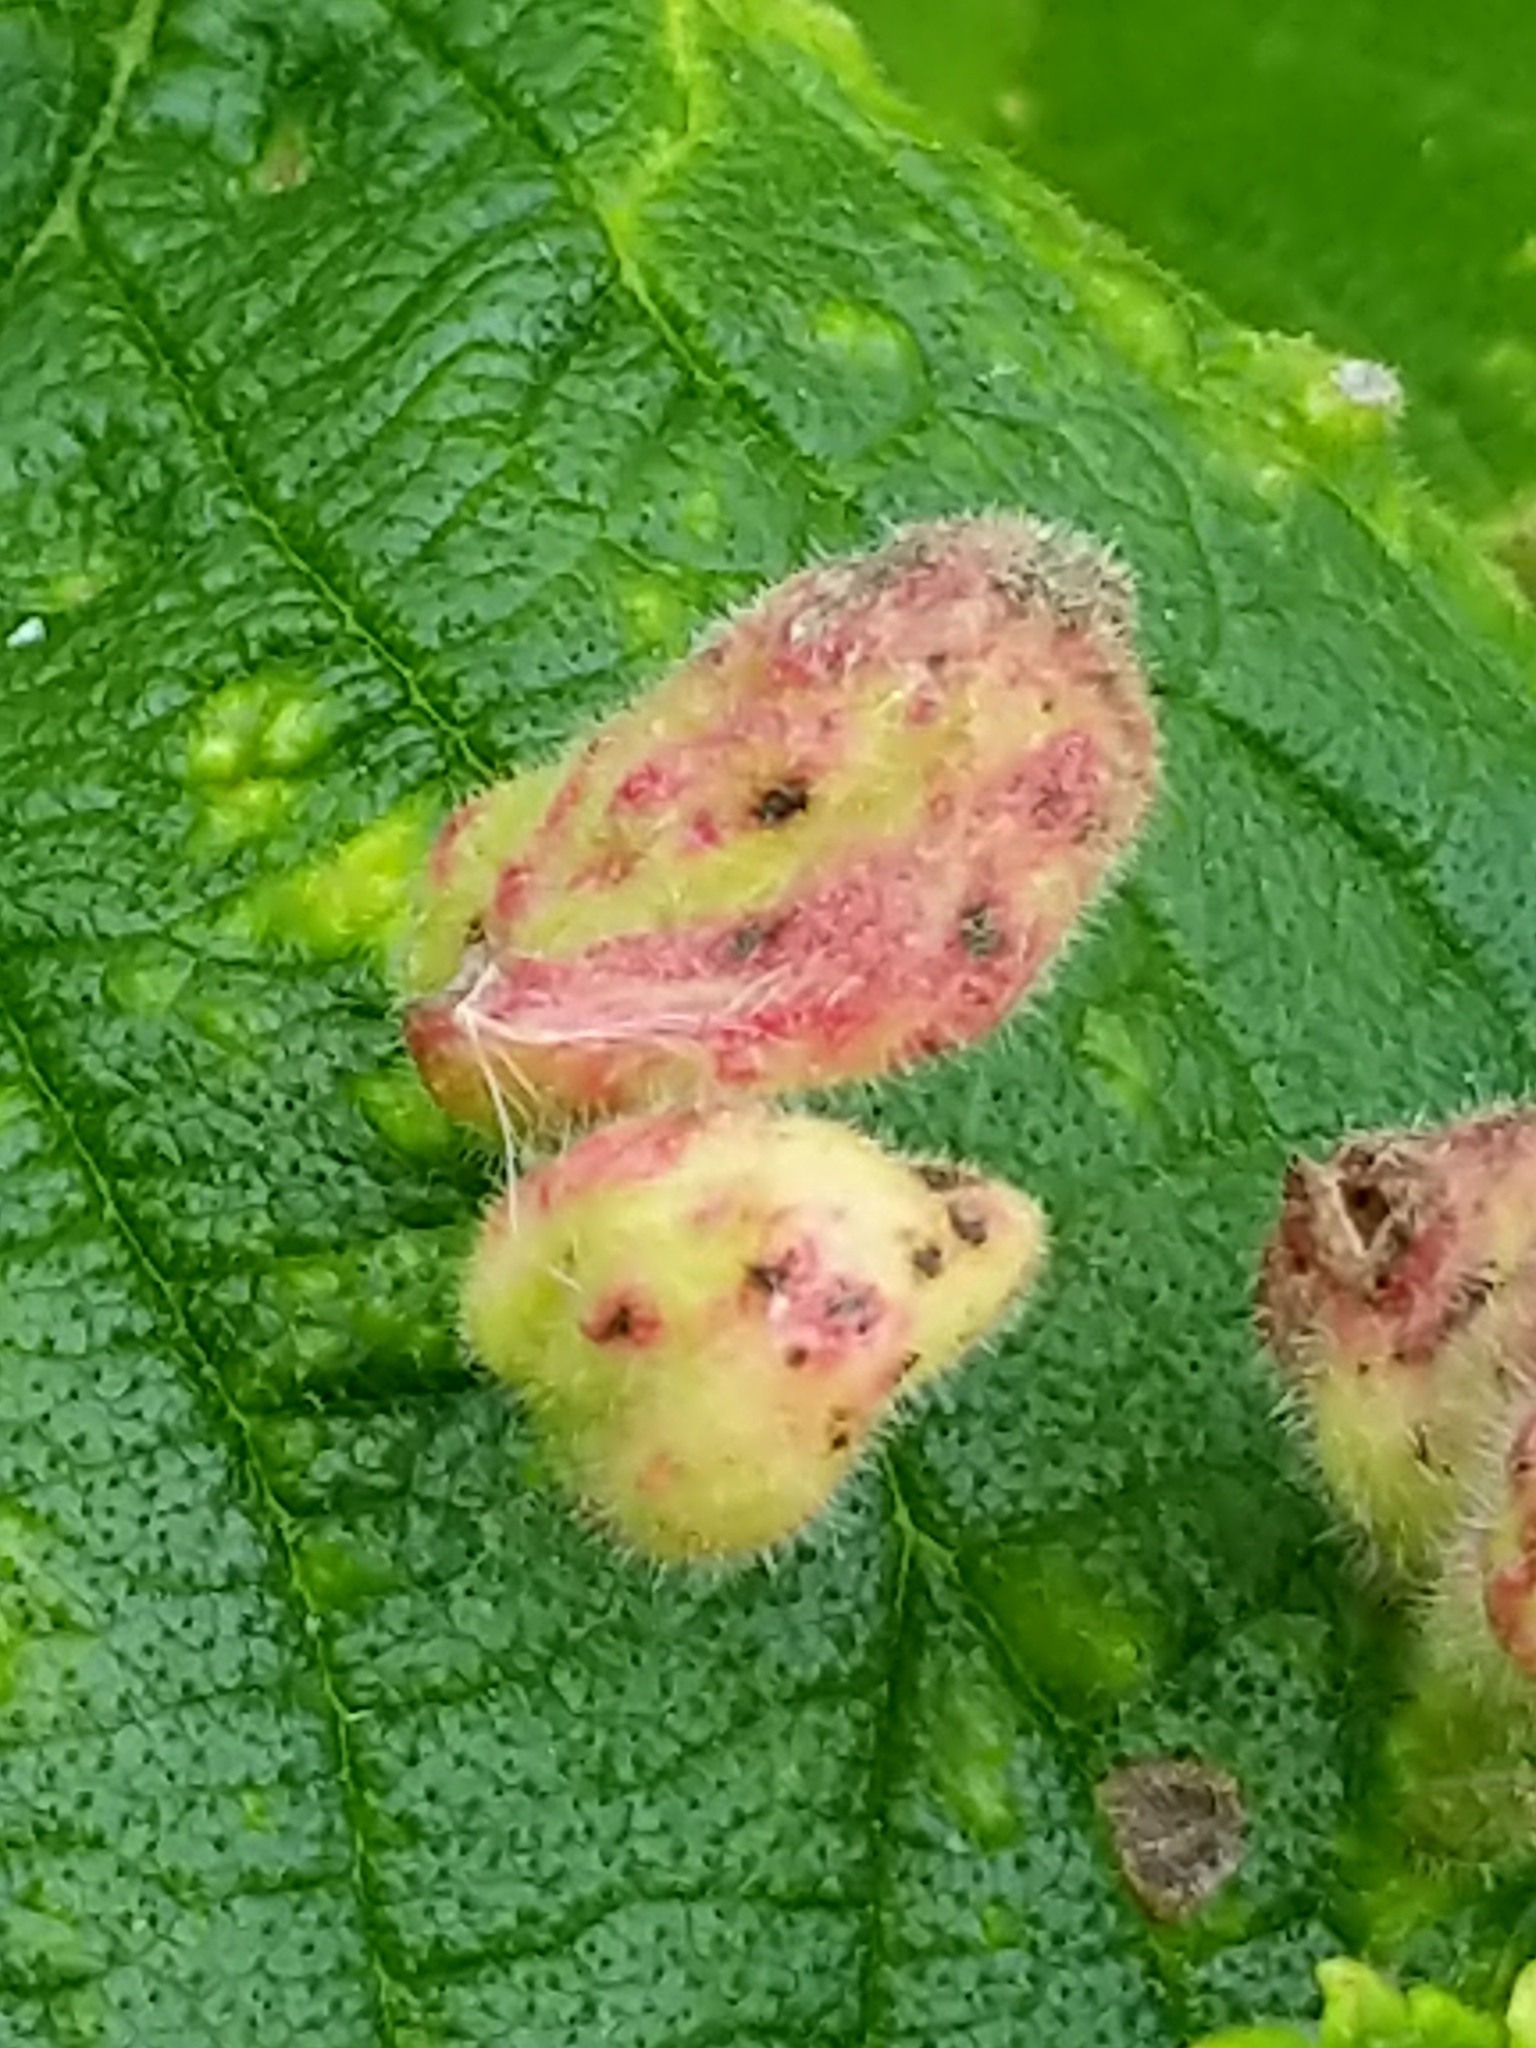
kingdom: Animalia
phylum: Arthropoda
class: Insecta
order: Hemiptera
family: Aphididae
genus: Tetraneura
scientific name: Tetraneura nigriabdominalis
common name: Aphid
